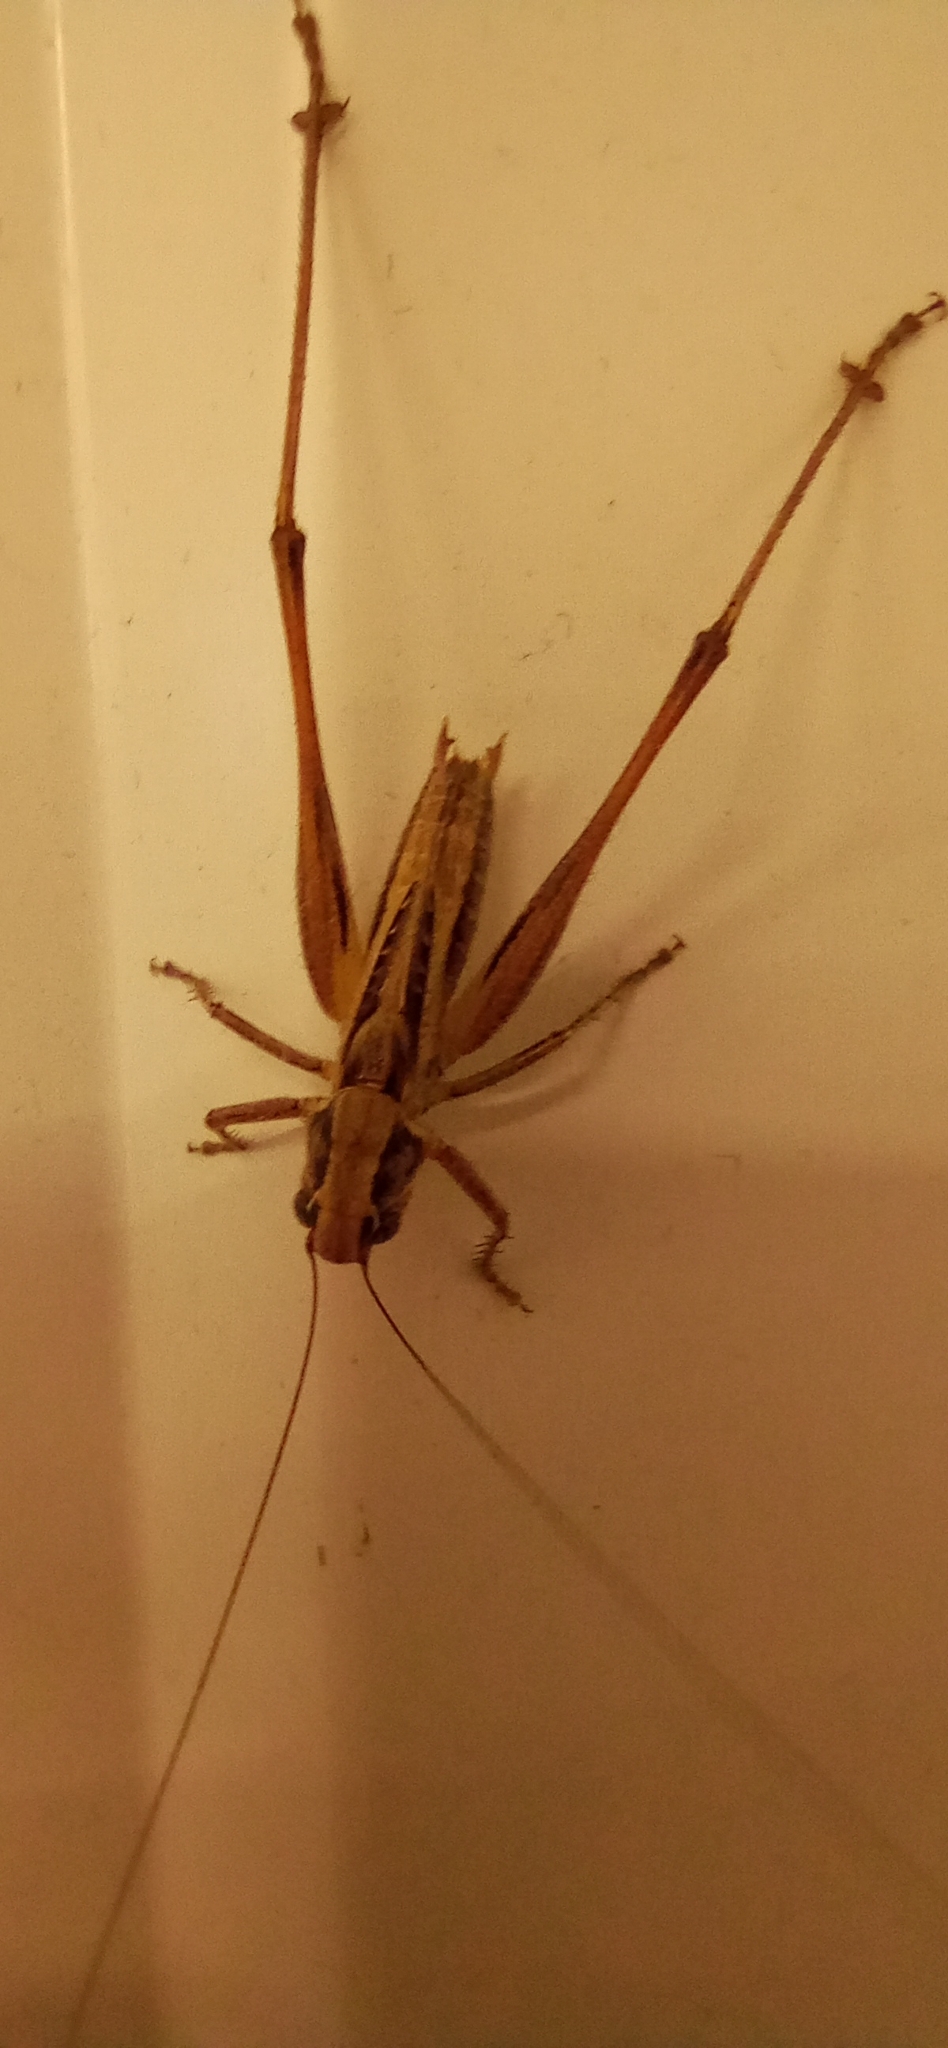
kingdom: Animalia
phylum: Arthropoda
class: Insecta
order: Orthoptera
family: Tettigoniidae
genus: Tessellana
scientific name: Tessellana veyseli
